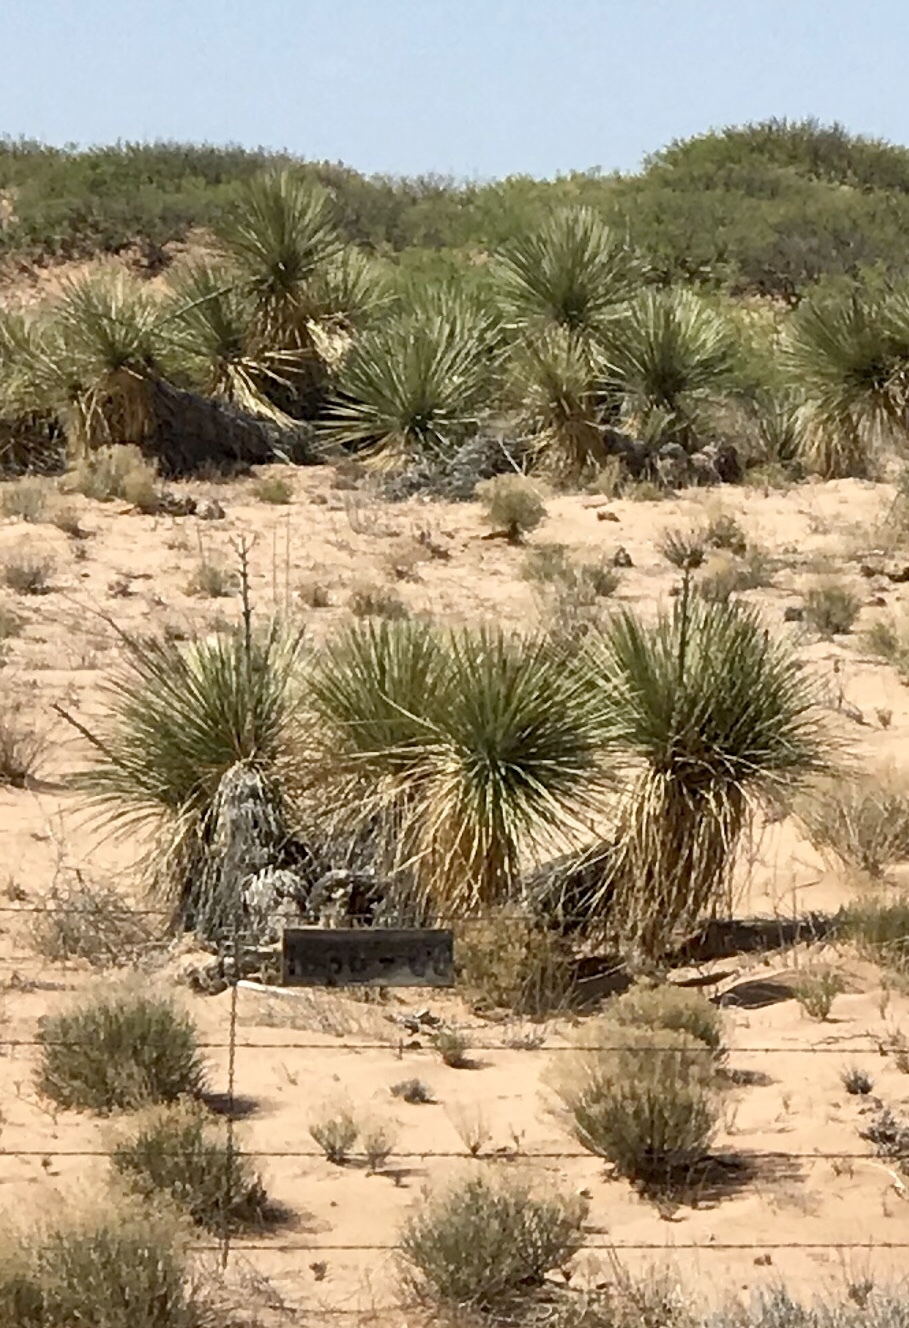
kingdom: Plantae
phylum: Tracheophyta
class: Liliopsida
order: Asparagales
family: Asparagaceae
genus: Yucca
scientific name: Yucca elata
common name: Palmella
